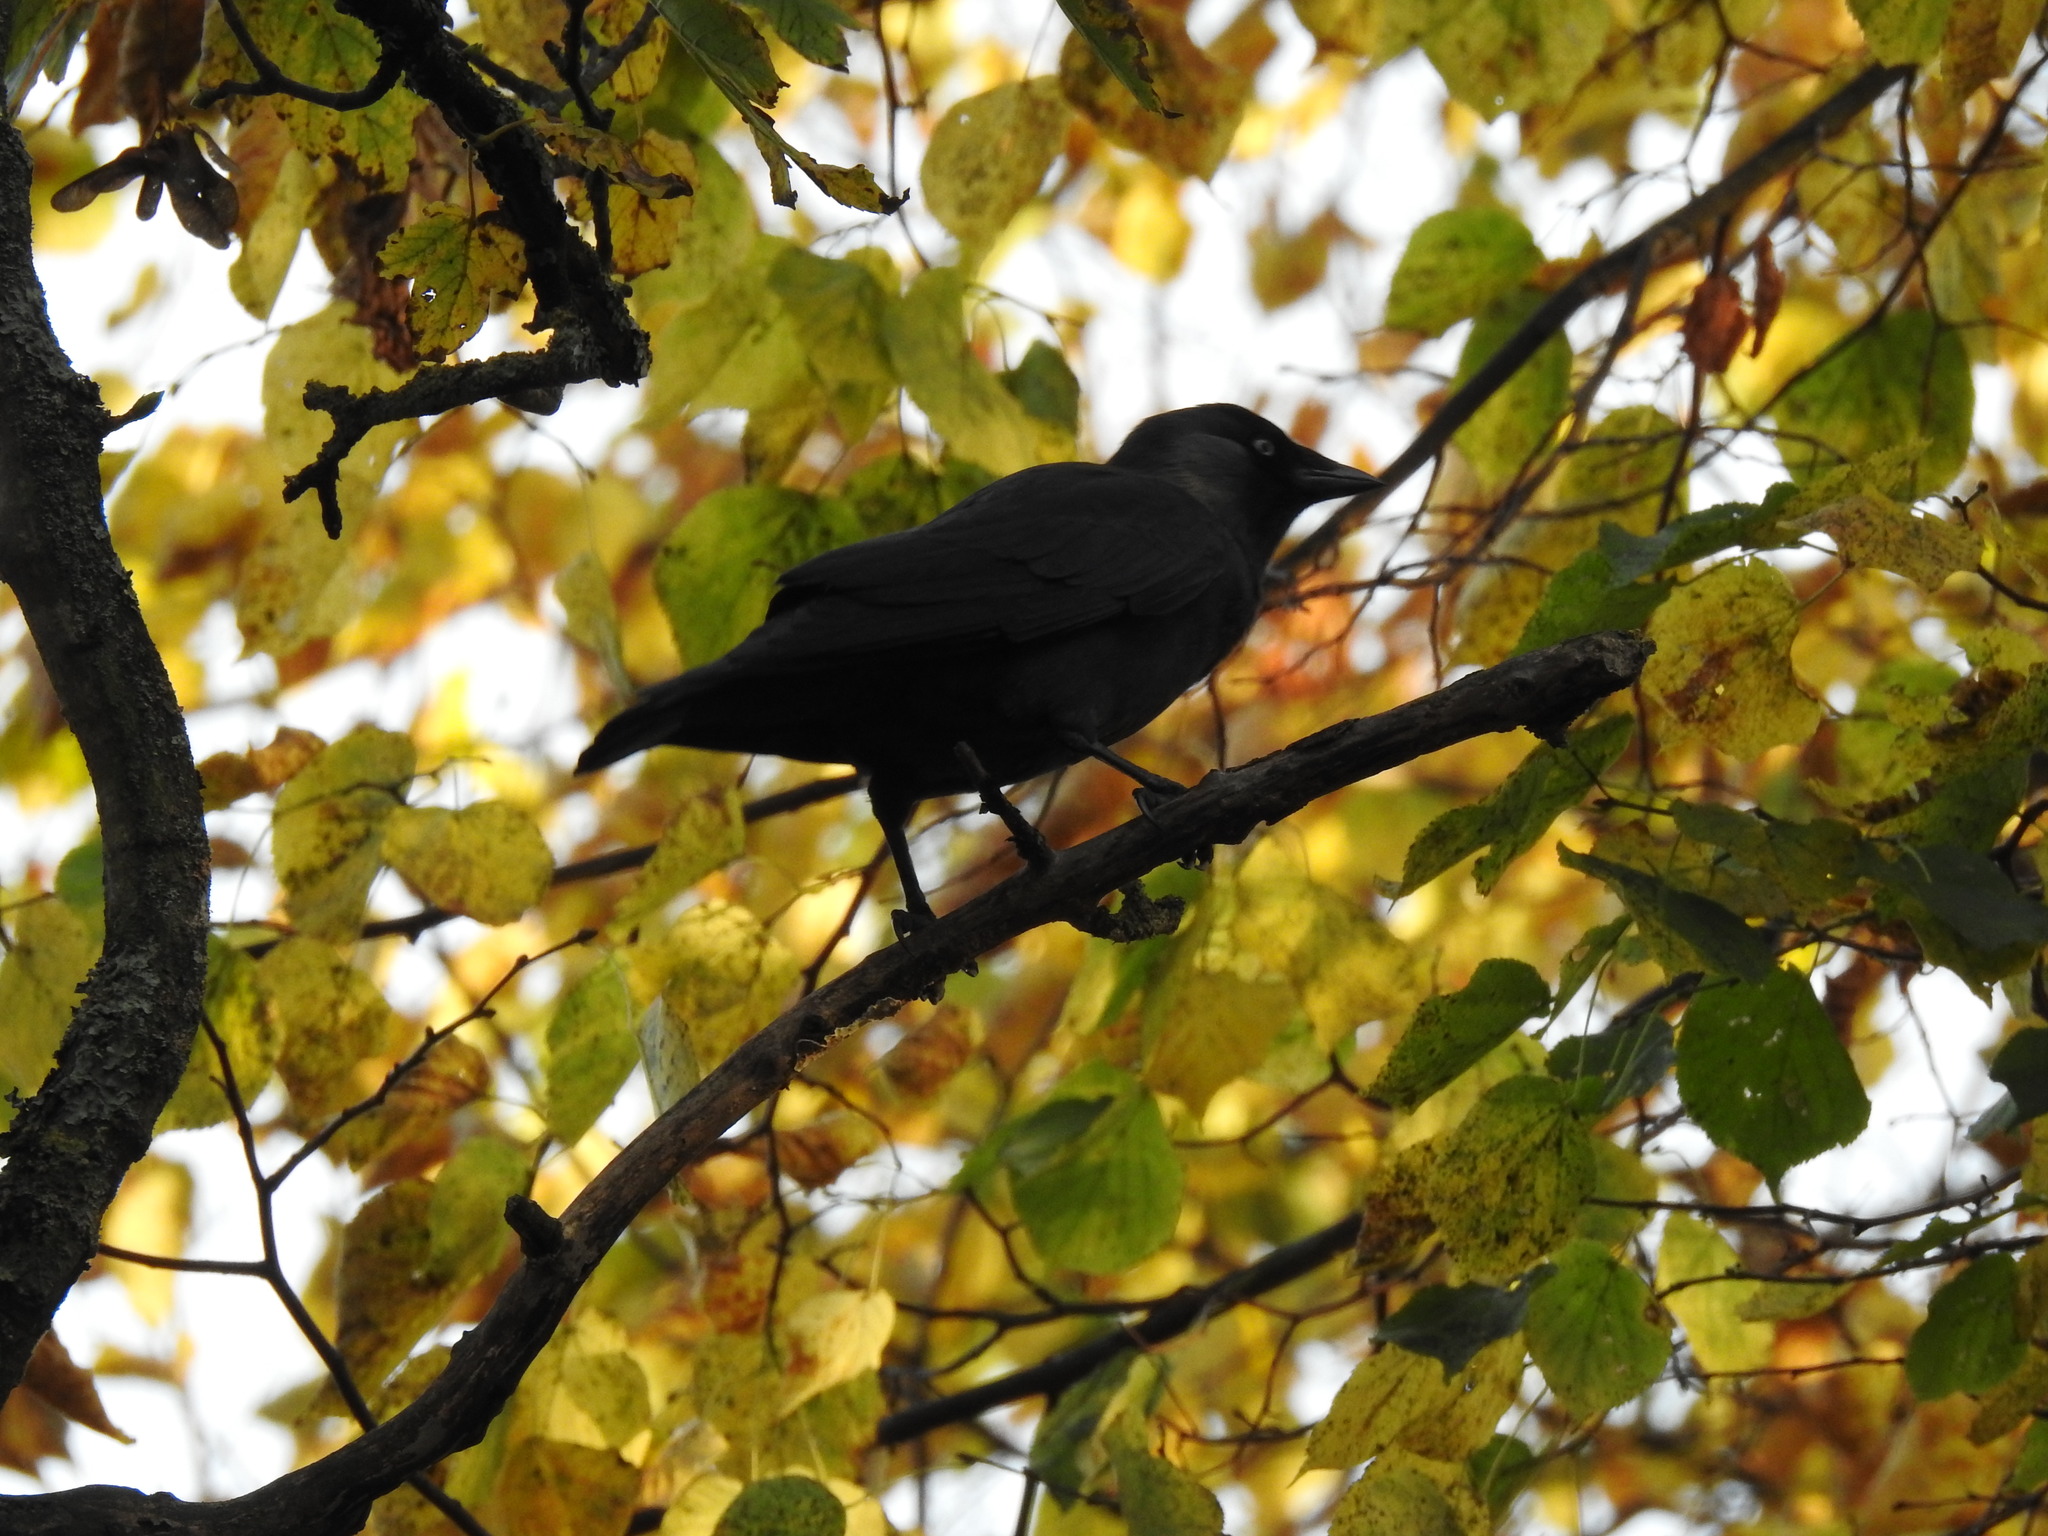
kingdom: Animalia
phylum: Chordata
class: Aves
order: Passeriformes
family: Corvidae
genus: Coloeus
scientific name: Coloeus monedula
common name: Western jackdaw
